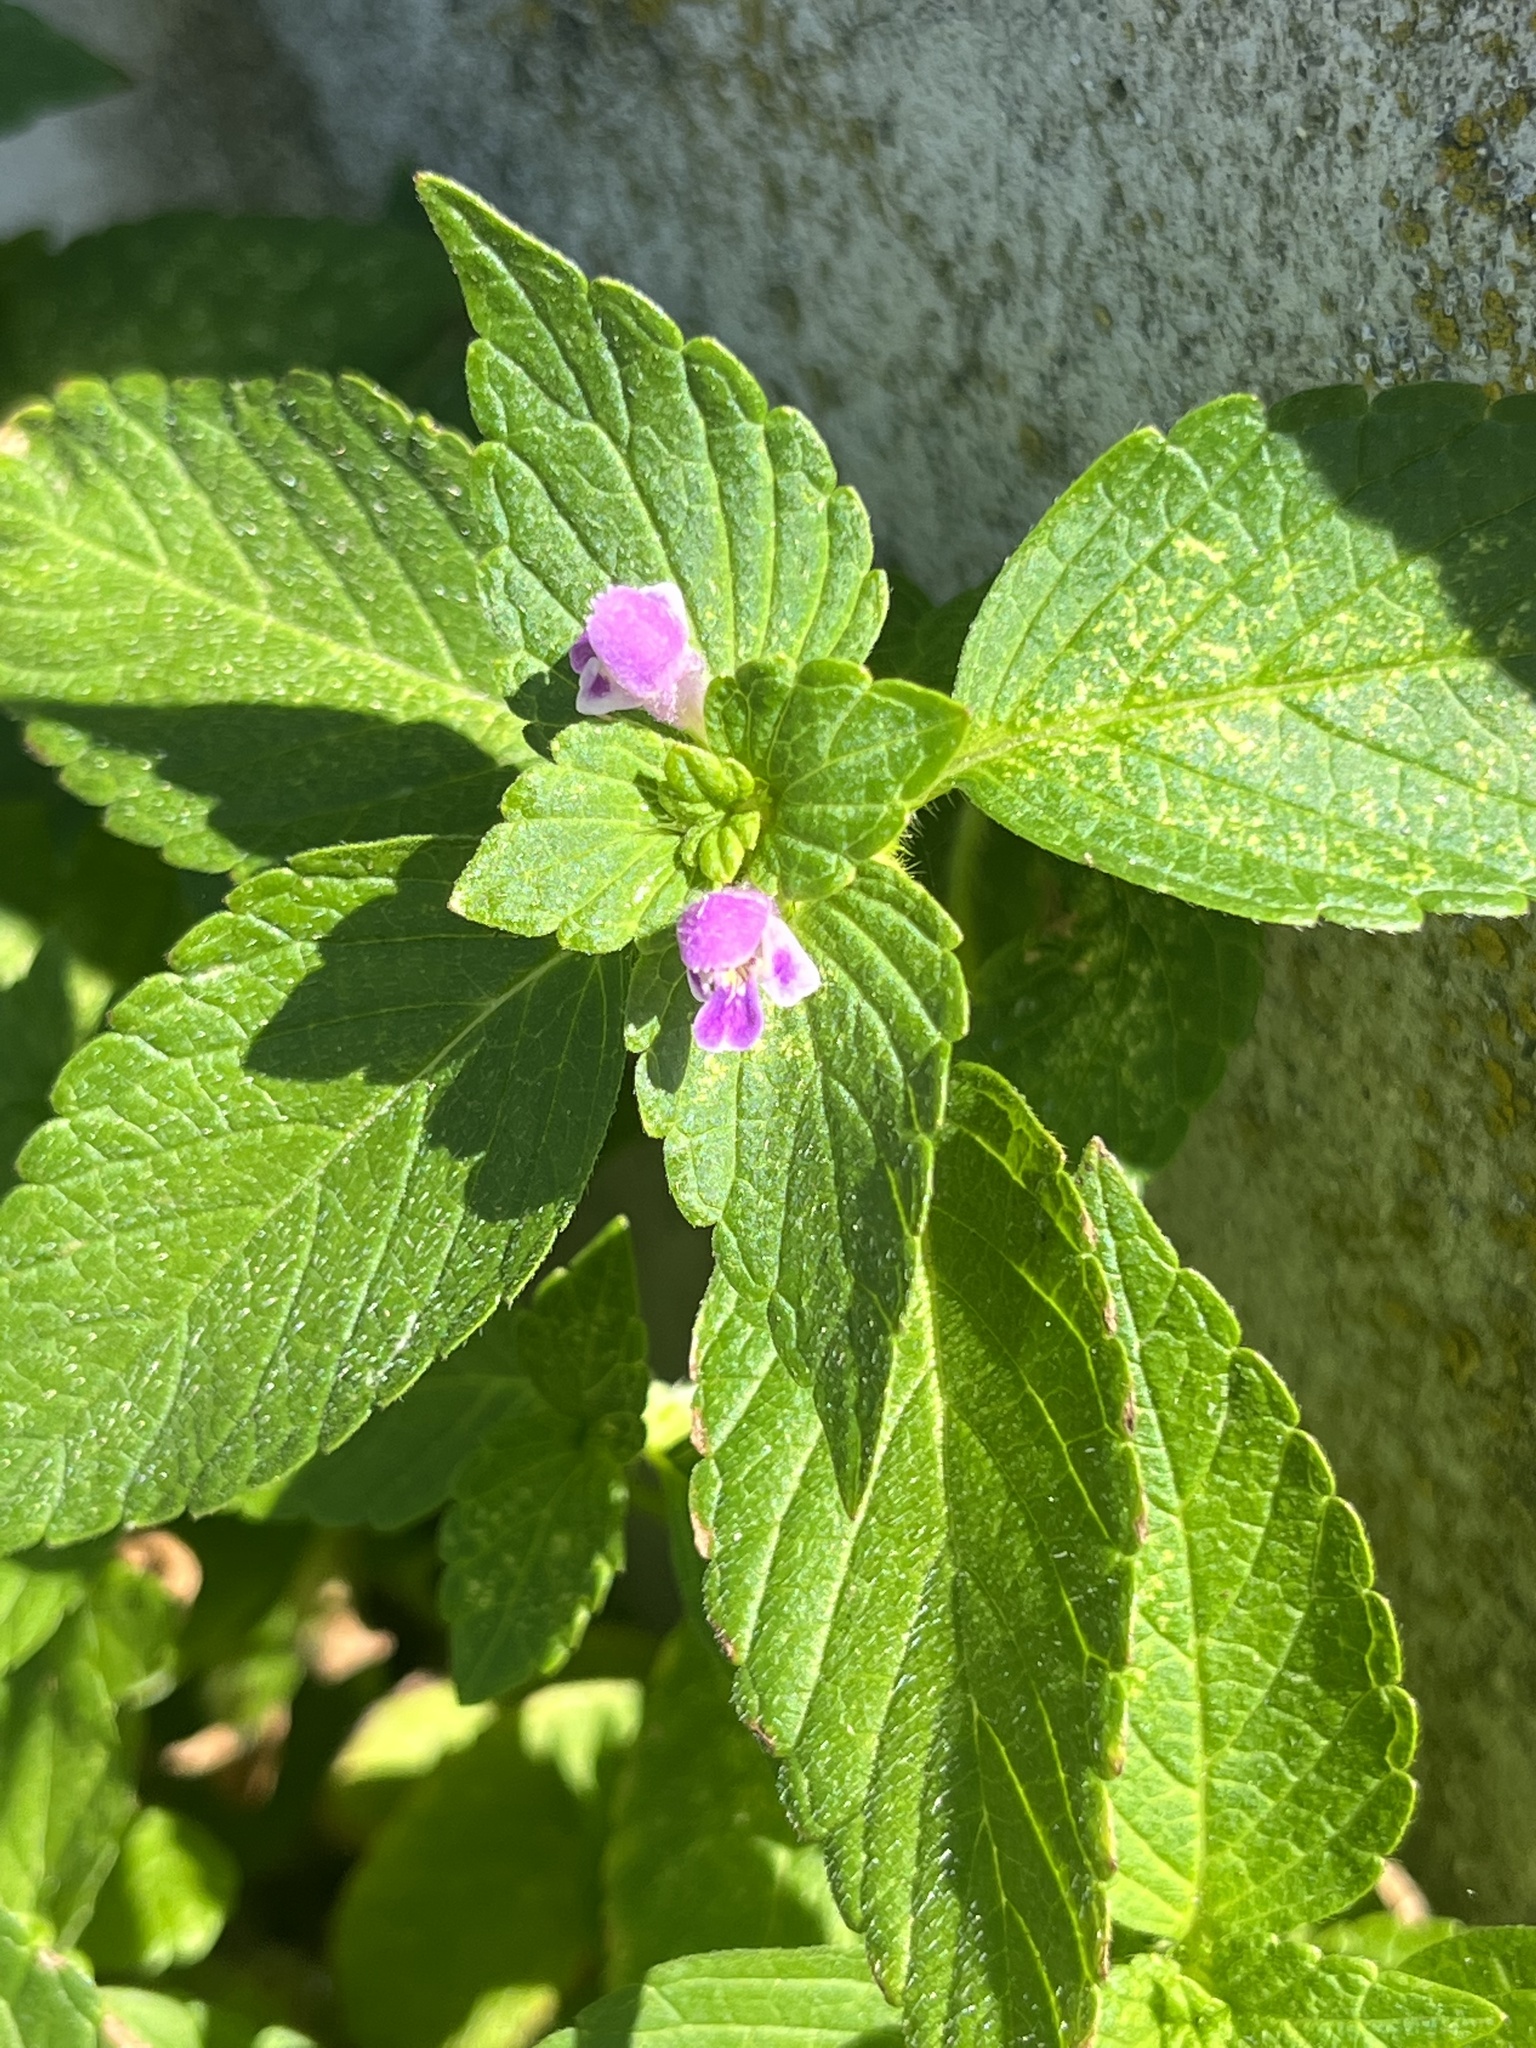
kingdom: Plantae
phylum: Tracheophyta
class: Magnoliopsida
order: Lamiales
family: Lamiaceae
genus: Galeopsis
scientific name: Galeopsis bifida
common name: Bifid hemp-nettle
